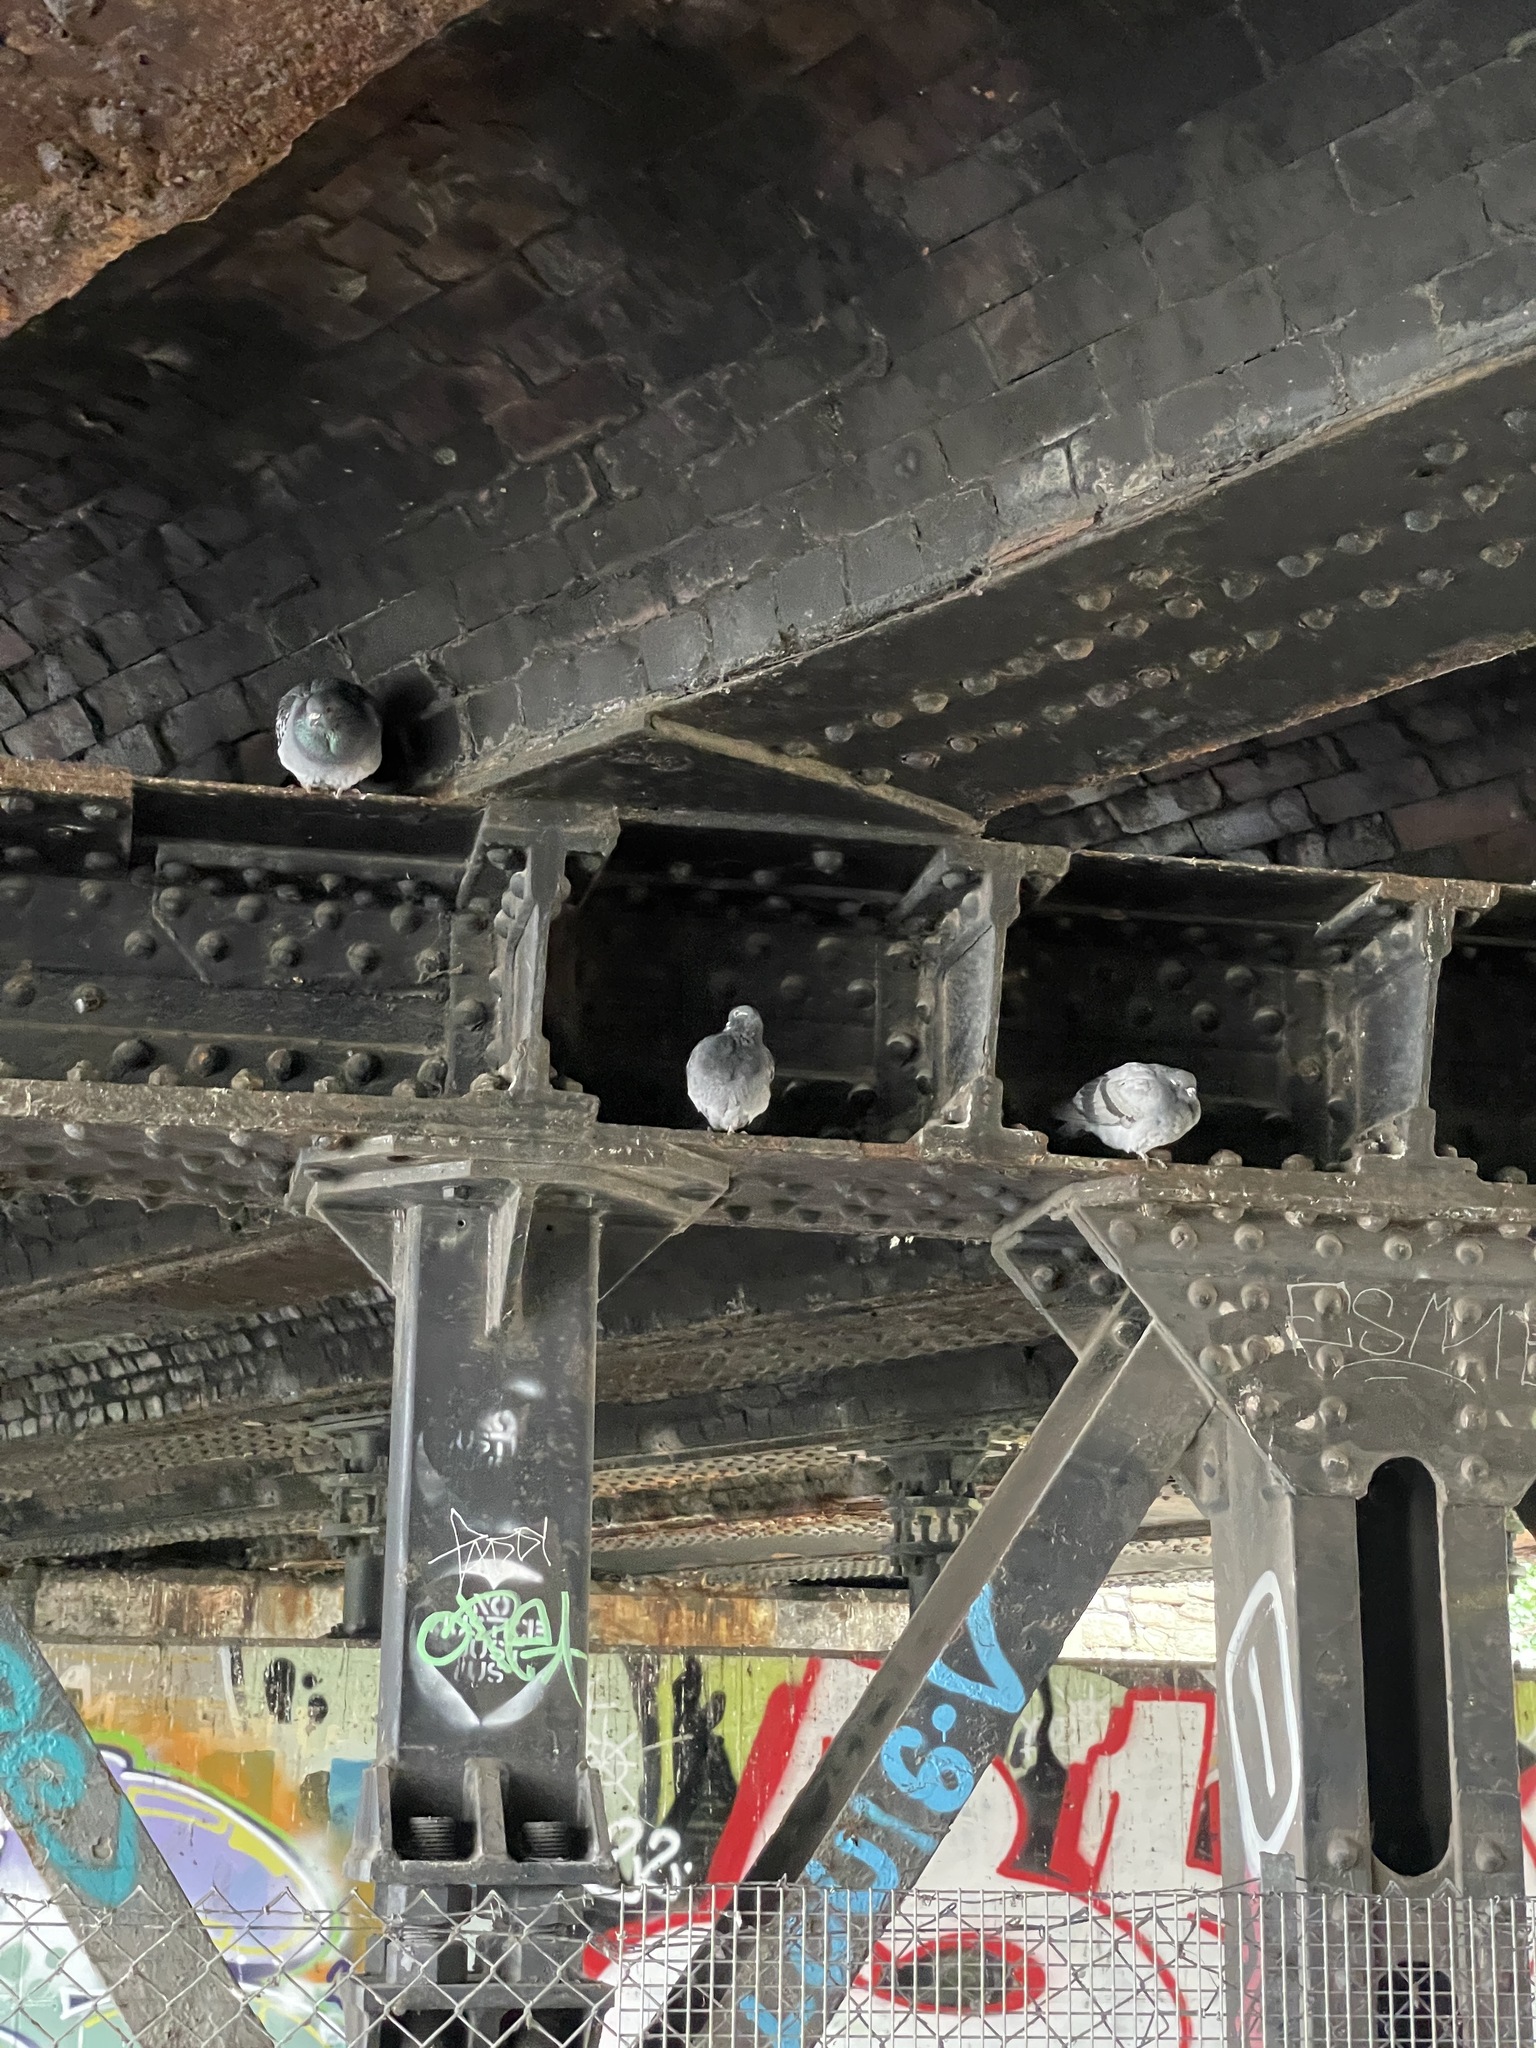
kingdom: Animalia
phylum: Chordata
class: Aves
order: Columbiformes
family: Columbidae
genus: Columba
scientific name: Columba livia
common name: Rock pigeon
